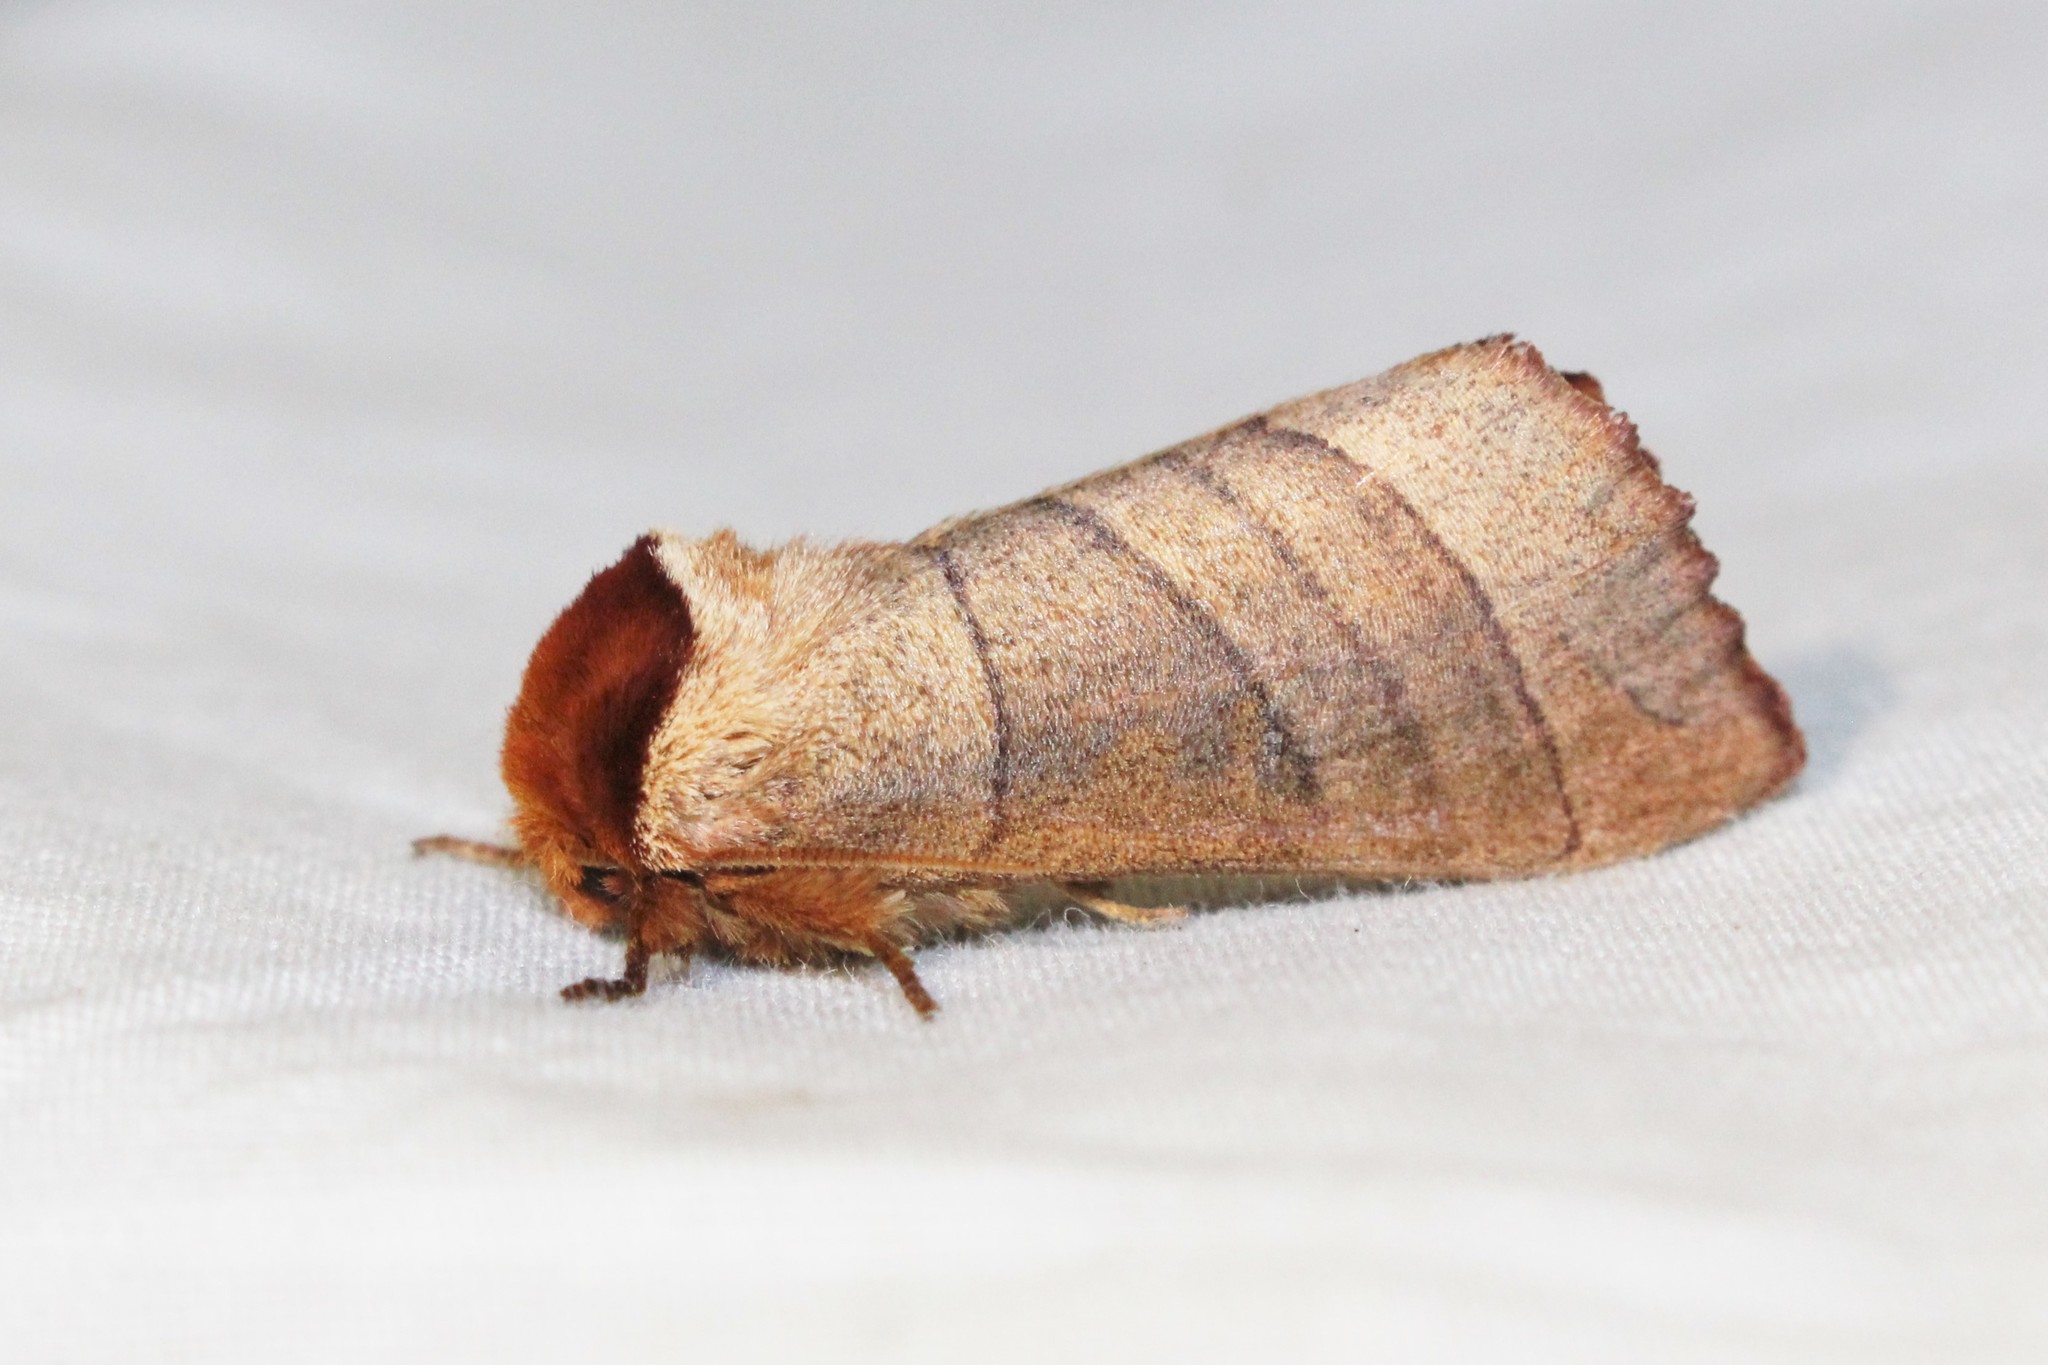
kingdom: Animalia
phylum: Arthropoda
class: Insecta
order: Lepidoptera
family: Notodontidae
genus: Datana
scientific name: Datana ministra
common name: Yellow-necked caterpillar moth
